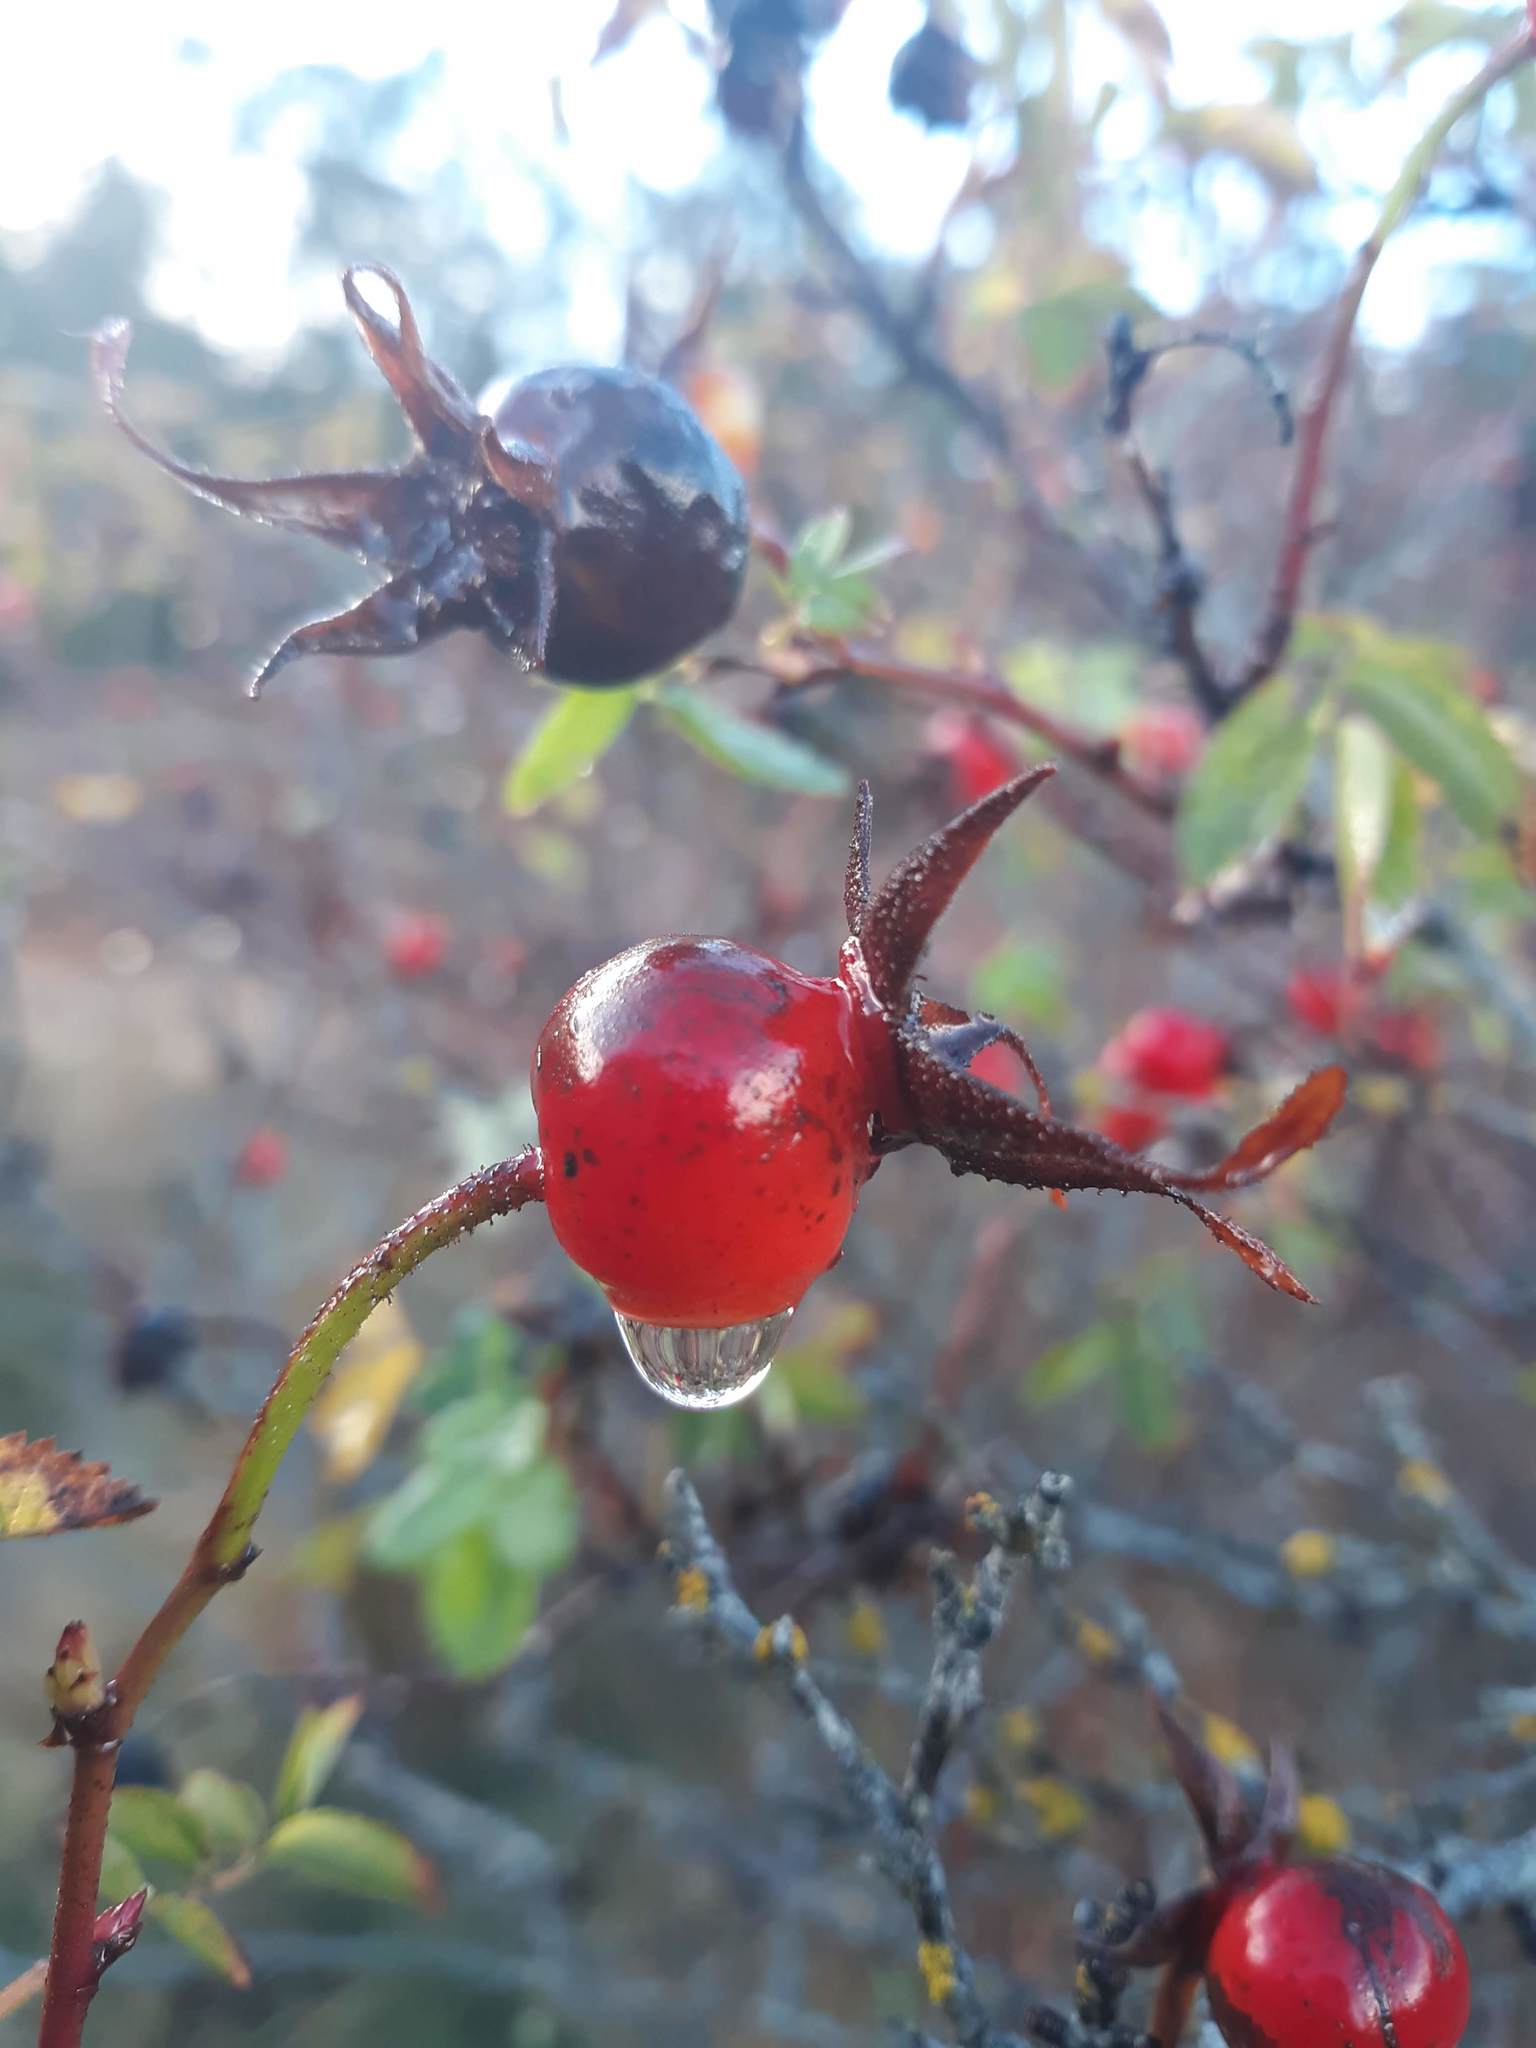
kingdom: Plantae
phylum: Tracheophyta
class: Magnoliopsida
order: Rosales
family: Rosaceae
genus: Rosa
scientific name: Rosa nutkana
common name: Nootka rose
